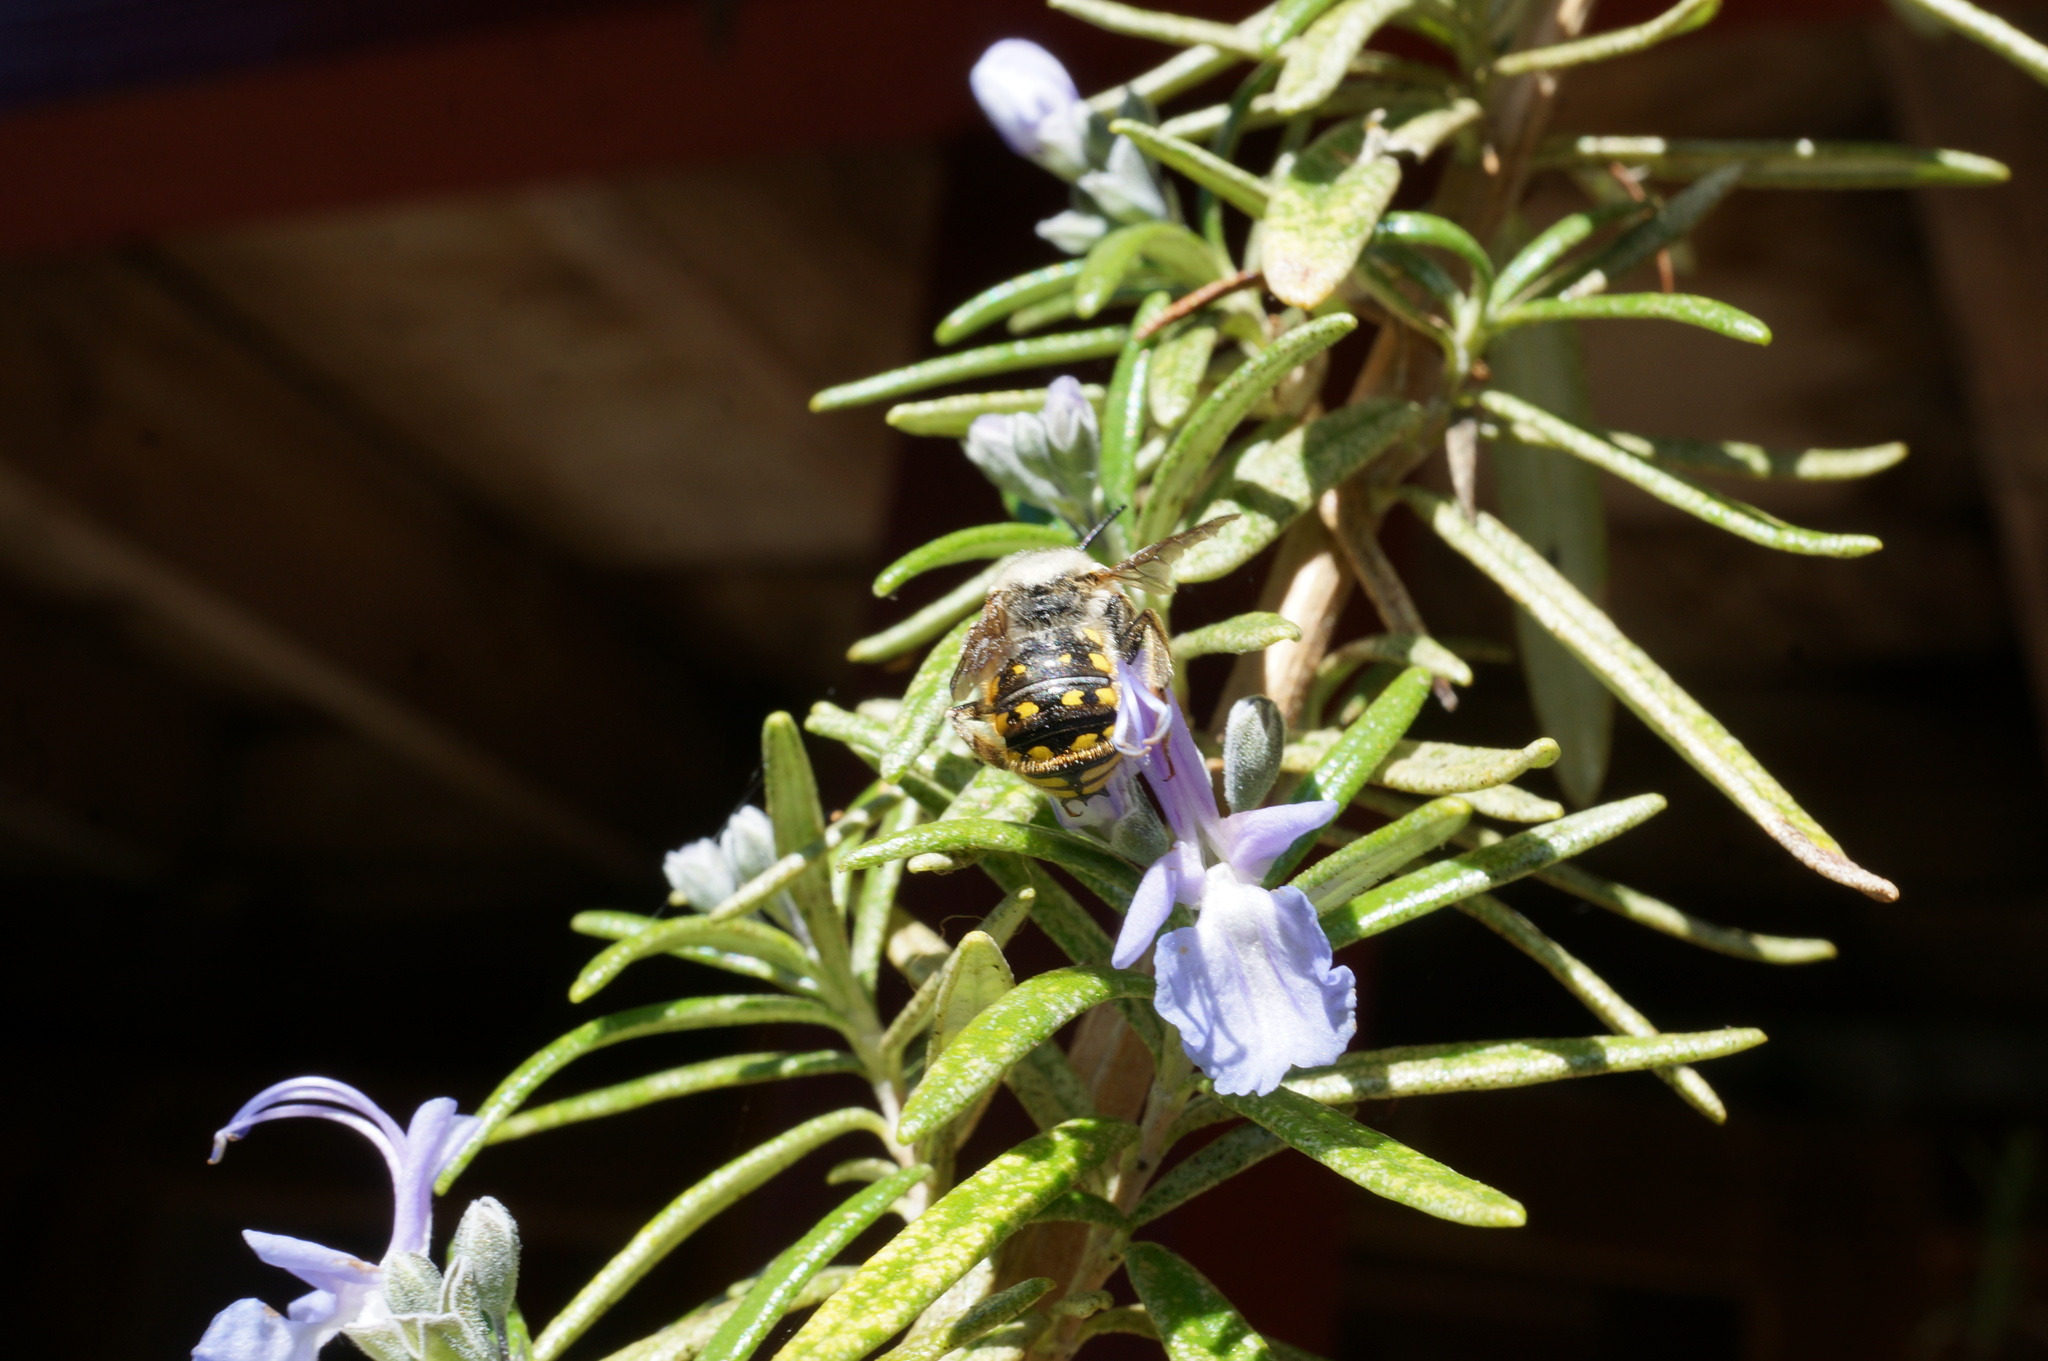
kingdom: Animalia
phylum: Arthropoda
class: Insecta
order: Hymenoptera
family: Megachilidae
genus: Anthidium
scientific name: Anthidium manicatum
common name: Wool carder bee
